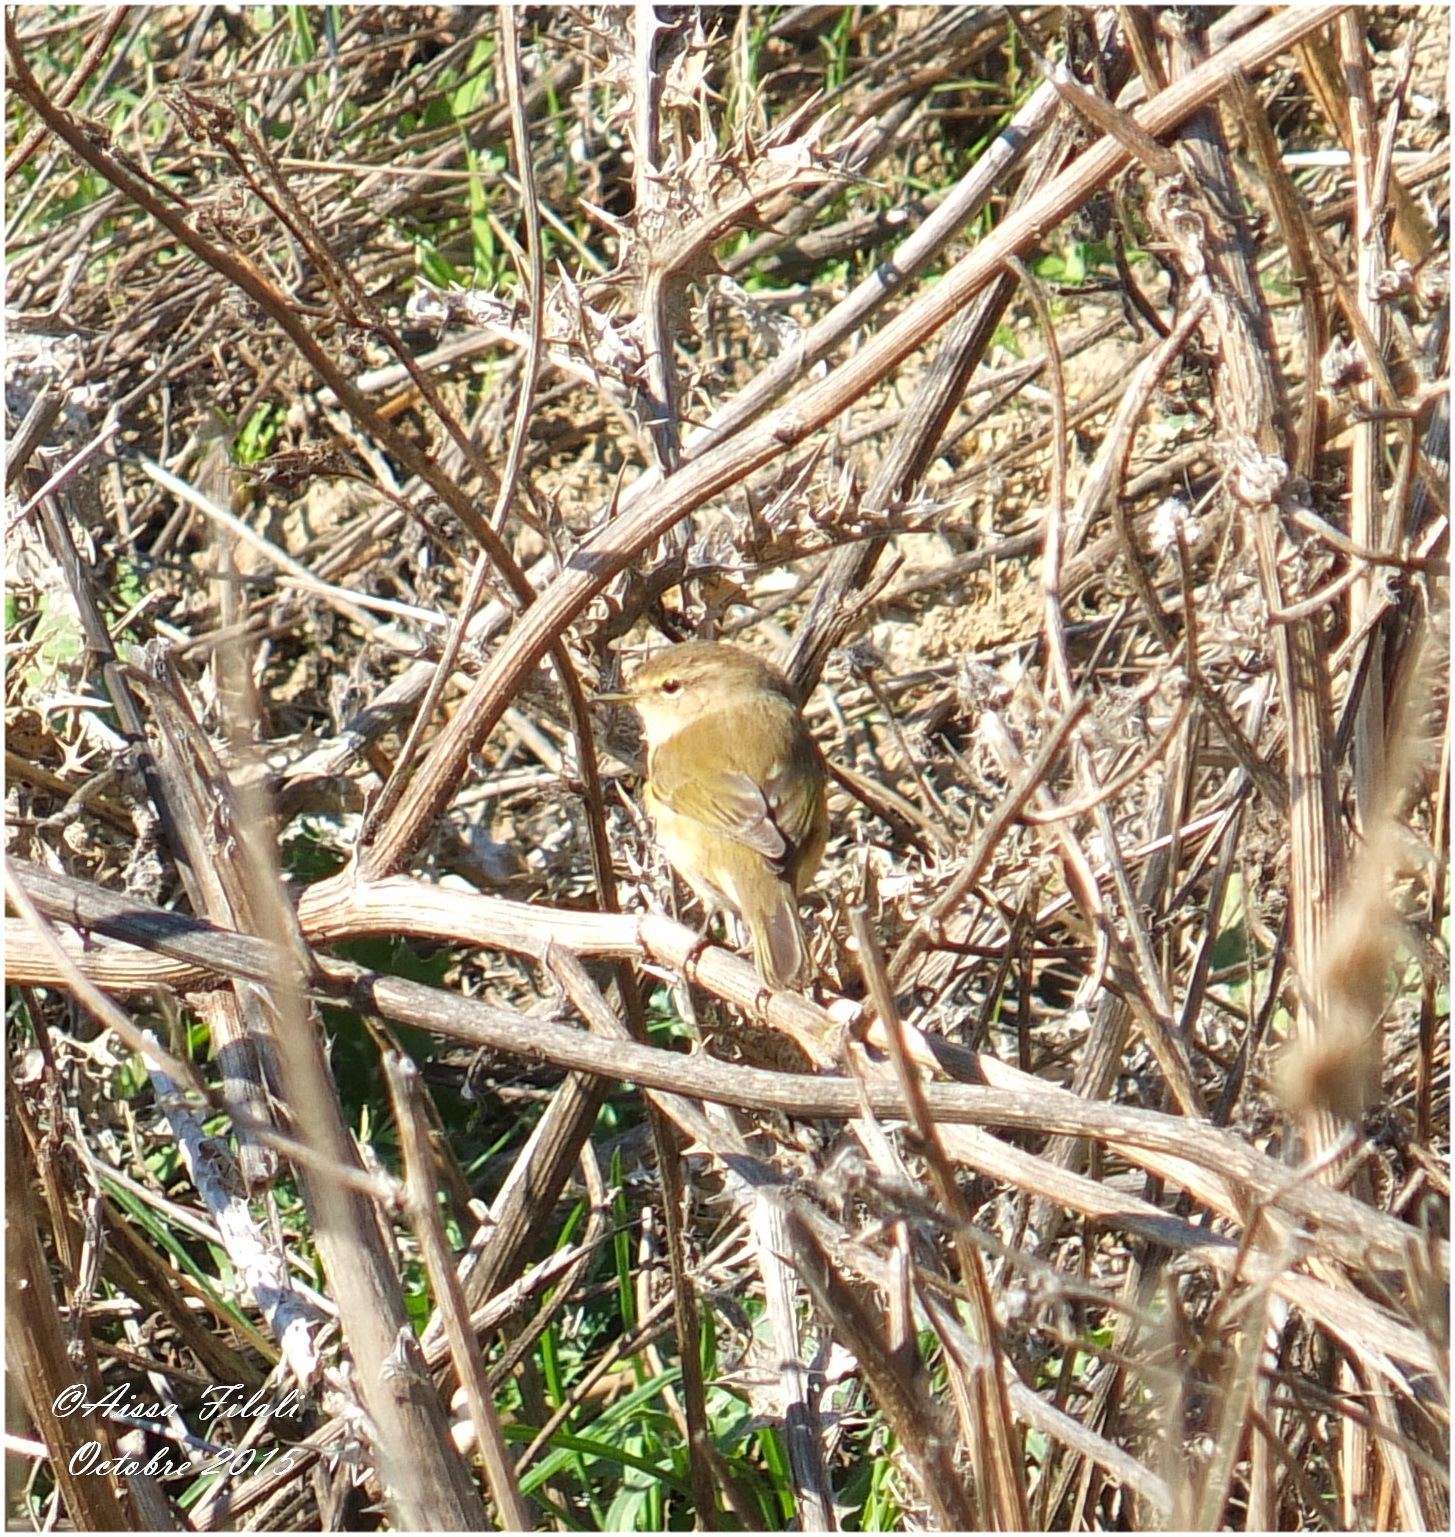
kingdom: Animalia
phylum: Chordata
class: Aves
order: Passeriformes
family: Phylloscopidae
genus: Phylloscopus
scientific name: Phylloscopus collybita
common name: Common chiffchaff
